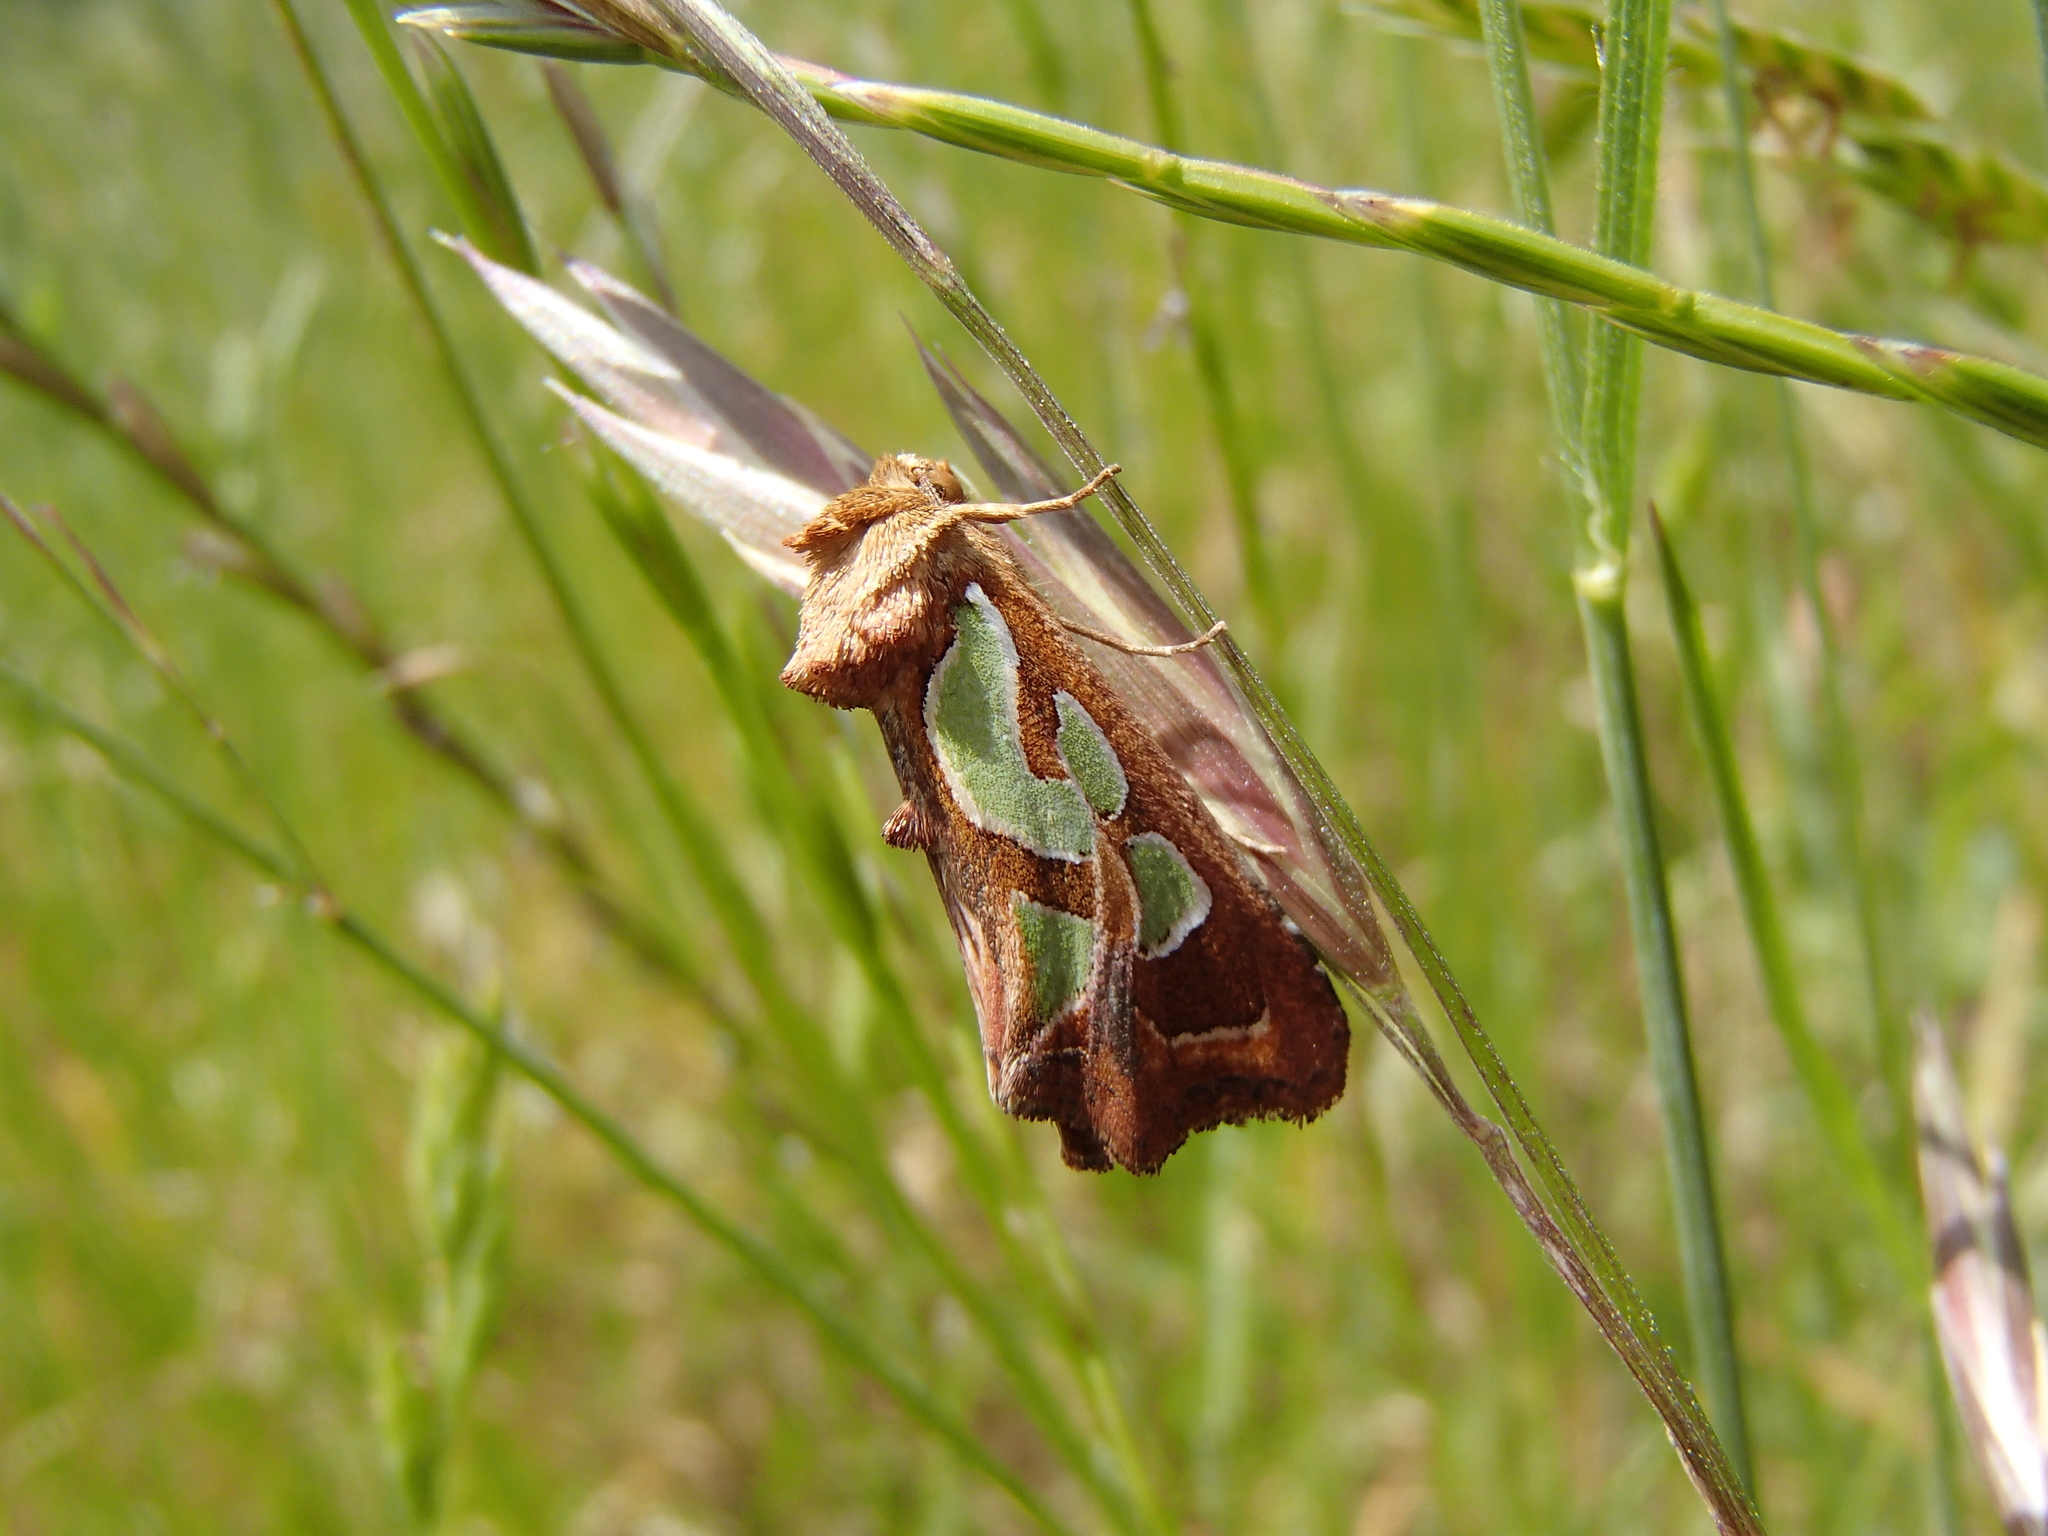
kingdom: Animalia
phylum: Arthropoda
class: Insecta
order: Lepidoptera
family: Noctuidae
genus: Cosmodes
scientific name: Cosmodes elegans
